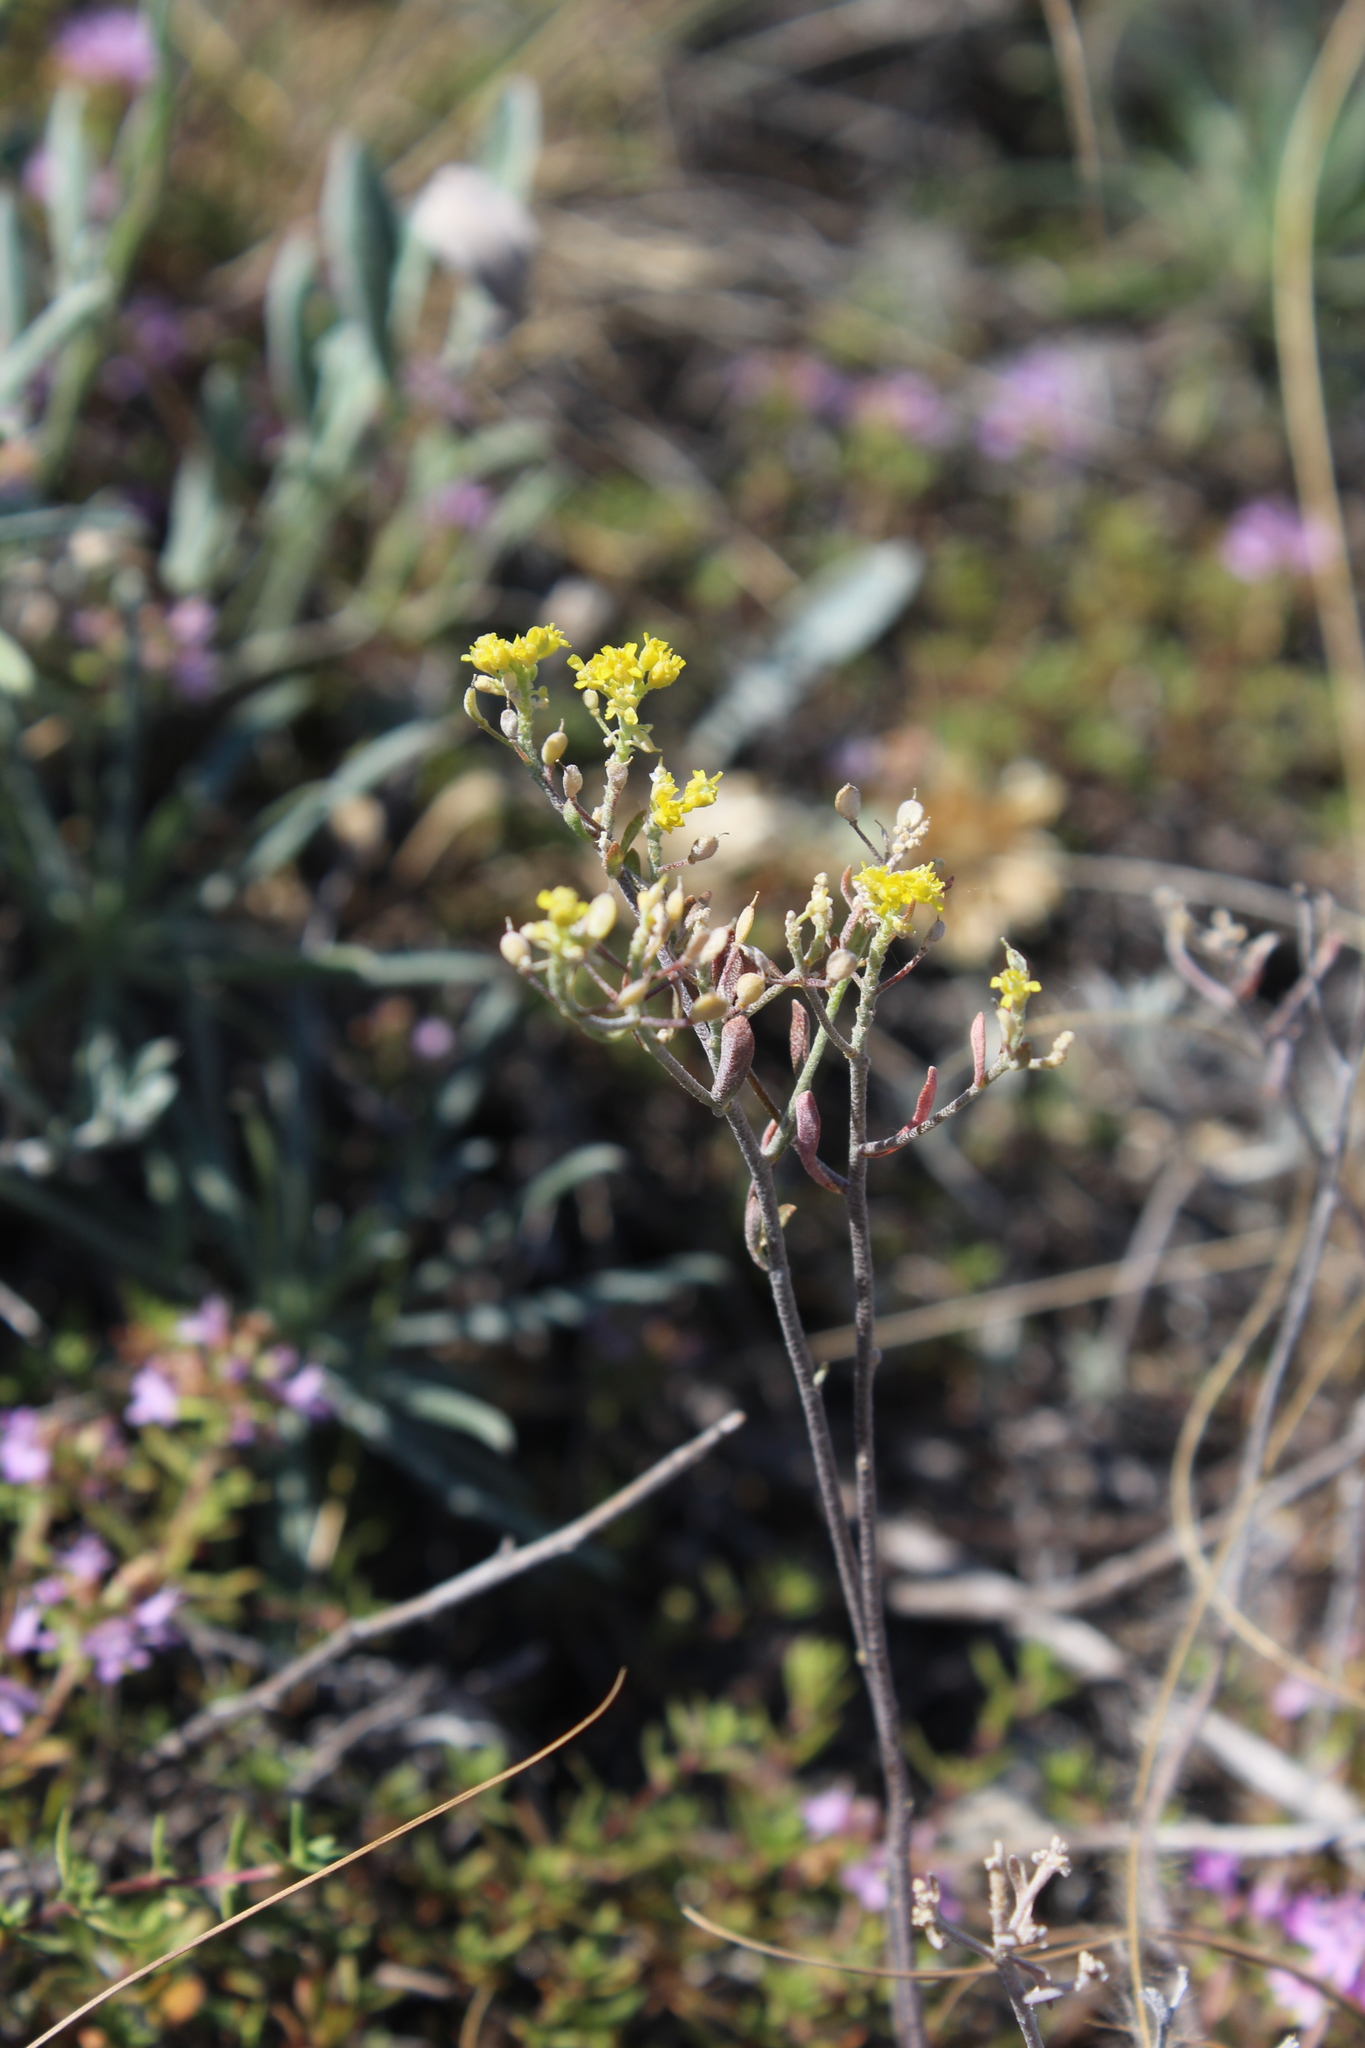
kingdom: Plantae
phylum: Tracheophyta
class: Magnoliopsida
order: Brassicales
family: Brassicaceae
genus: Odontarrhena
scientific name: Odontarrhena tortuosa
